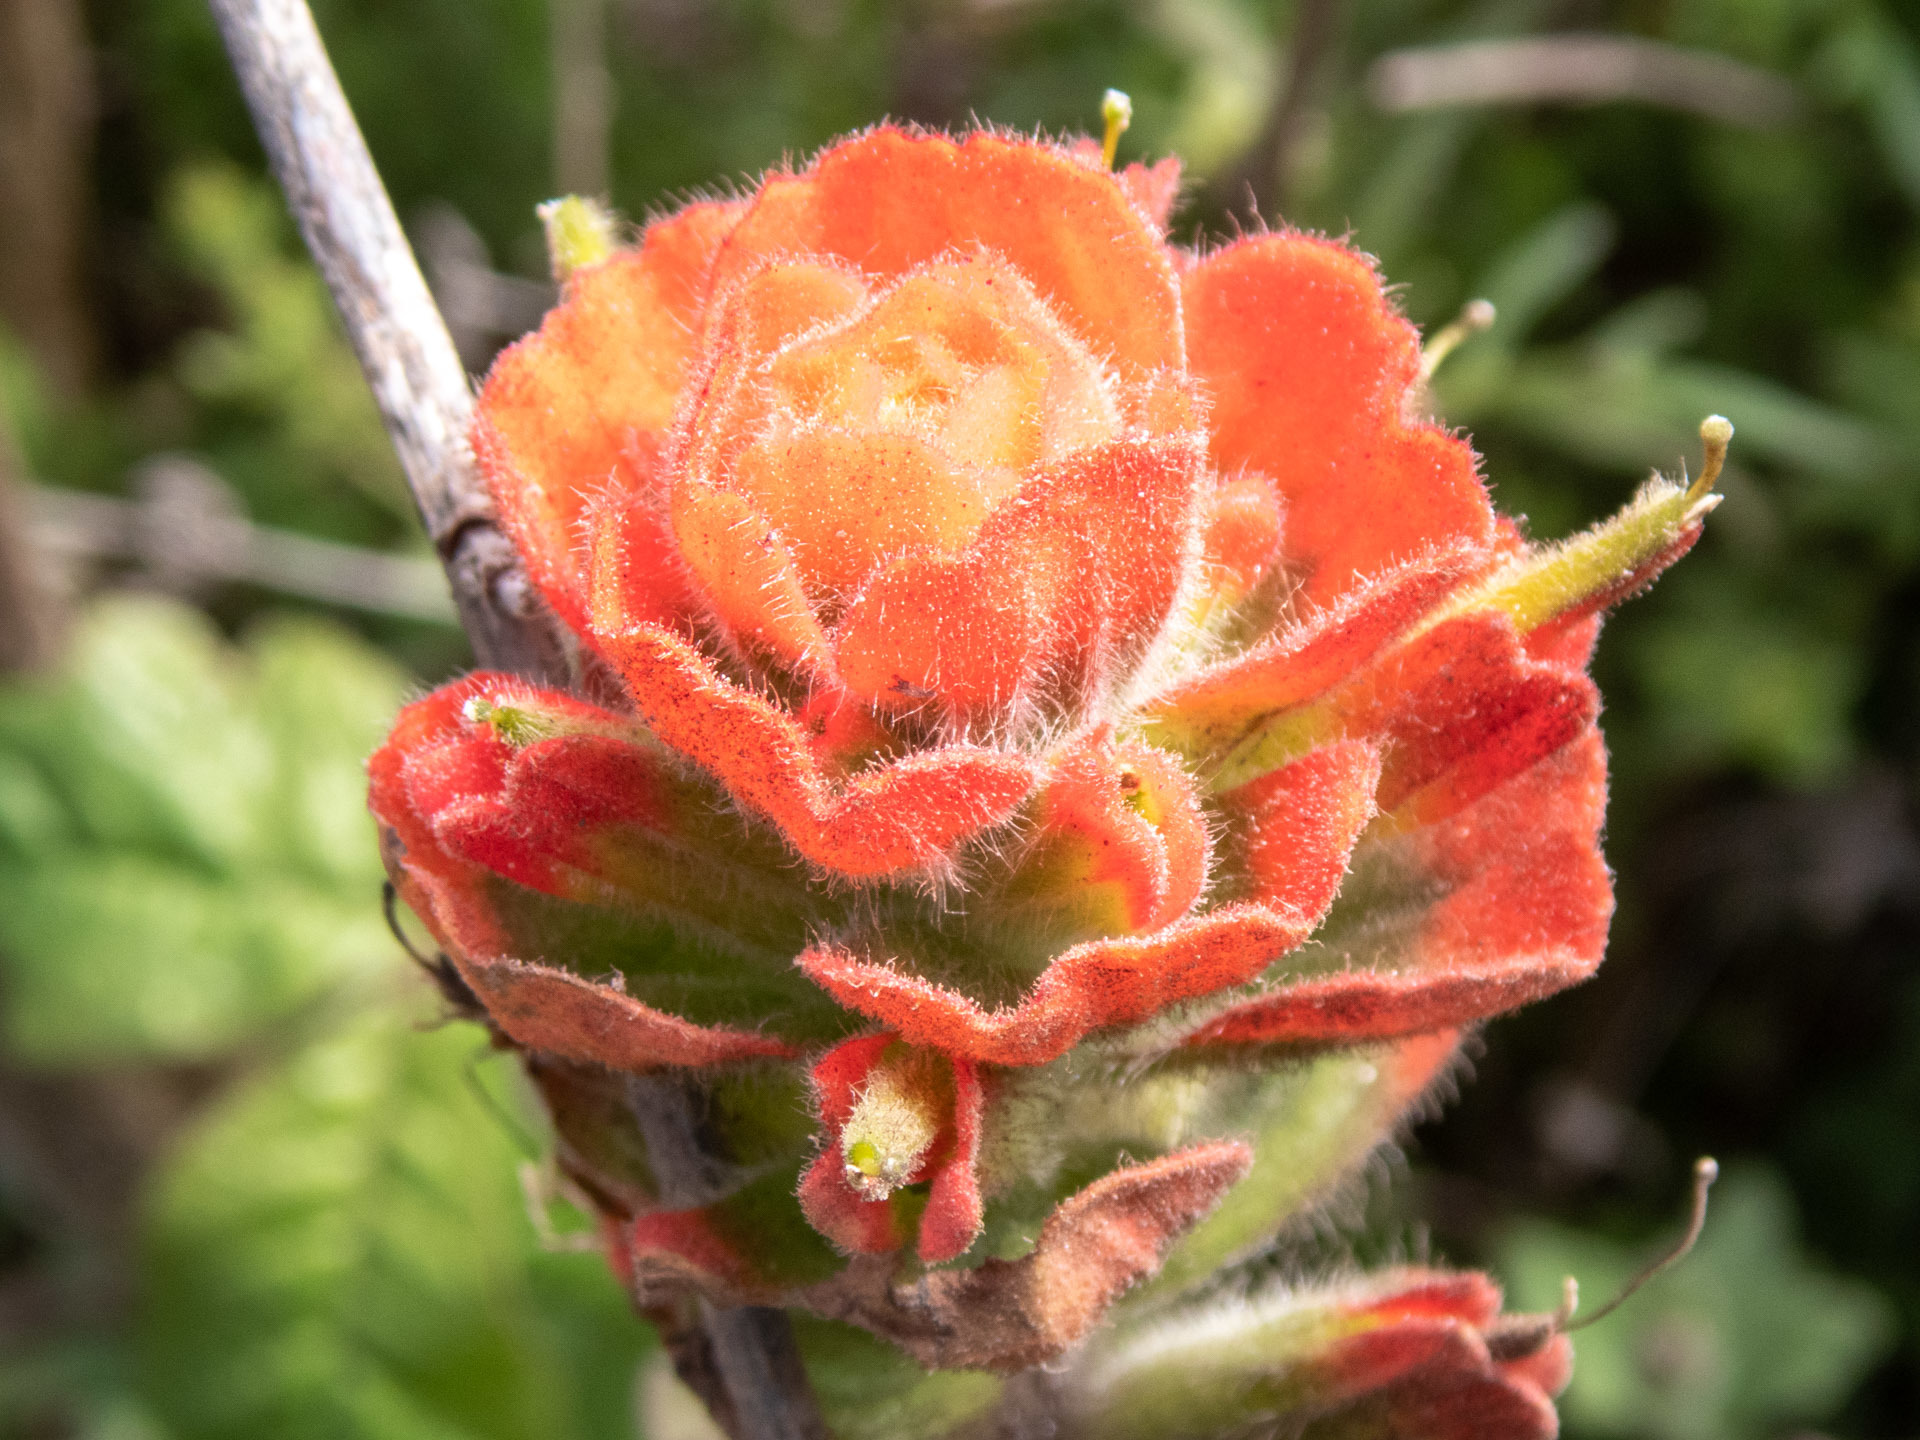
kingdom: Plantae
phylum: Tracheophyta
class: Magnoliopsida
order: Lamiales
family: Orobanchaceae
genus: Castilleja
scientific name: Castilleja latifolia
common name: Monterey indian paintbrush
